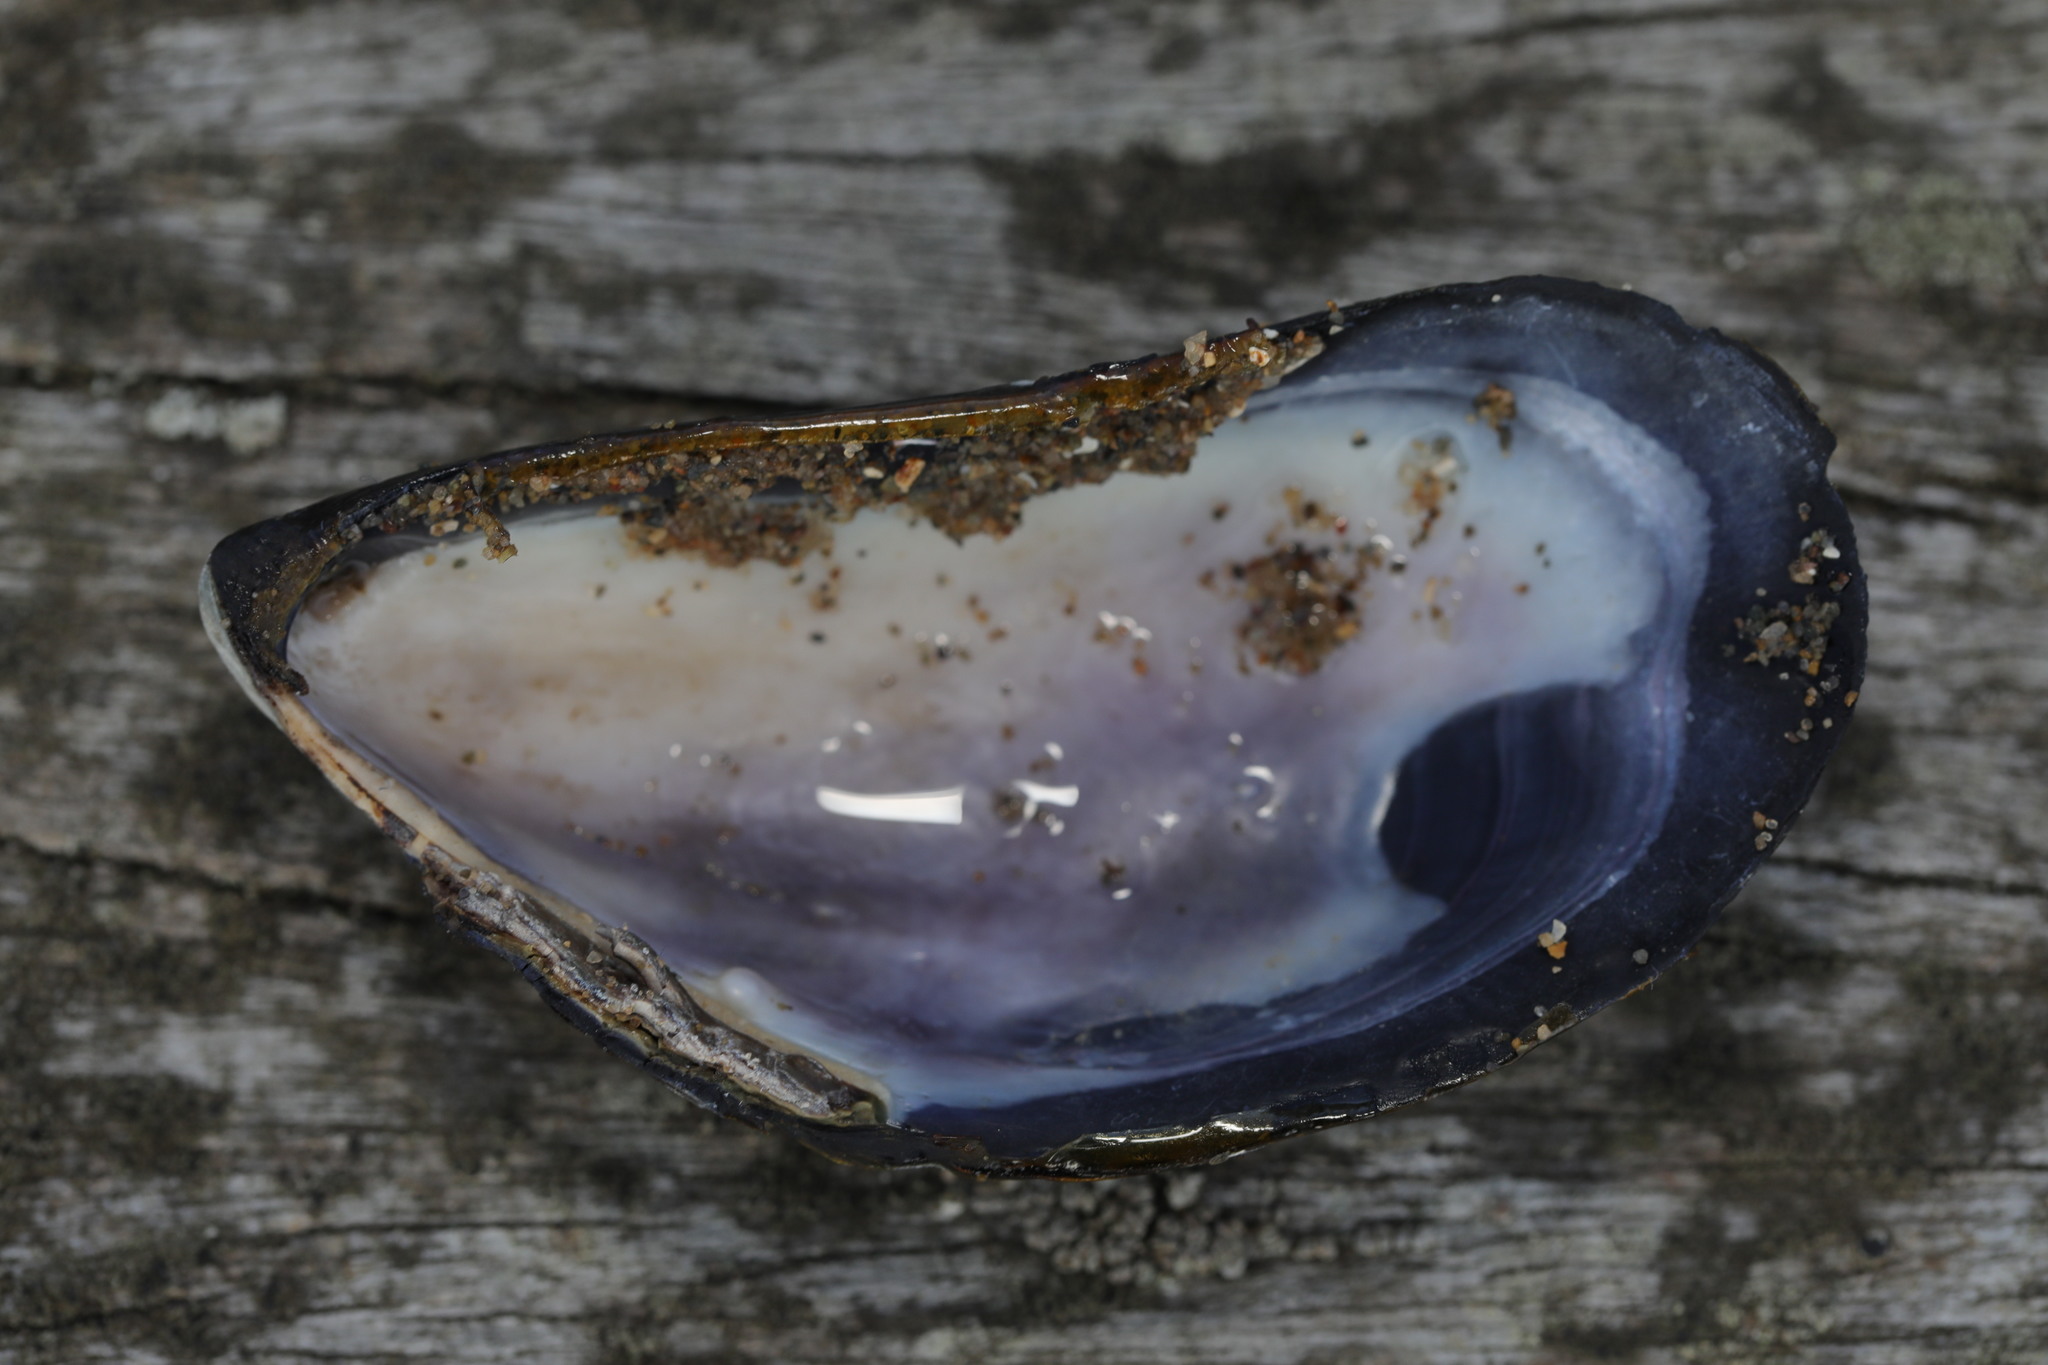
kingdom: Animalia
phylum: Mollusca
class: Bivalvia
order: Mytilida
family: Mytilidae
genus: Mytilus
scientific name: Mytilus edulis
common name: Blue mussel
